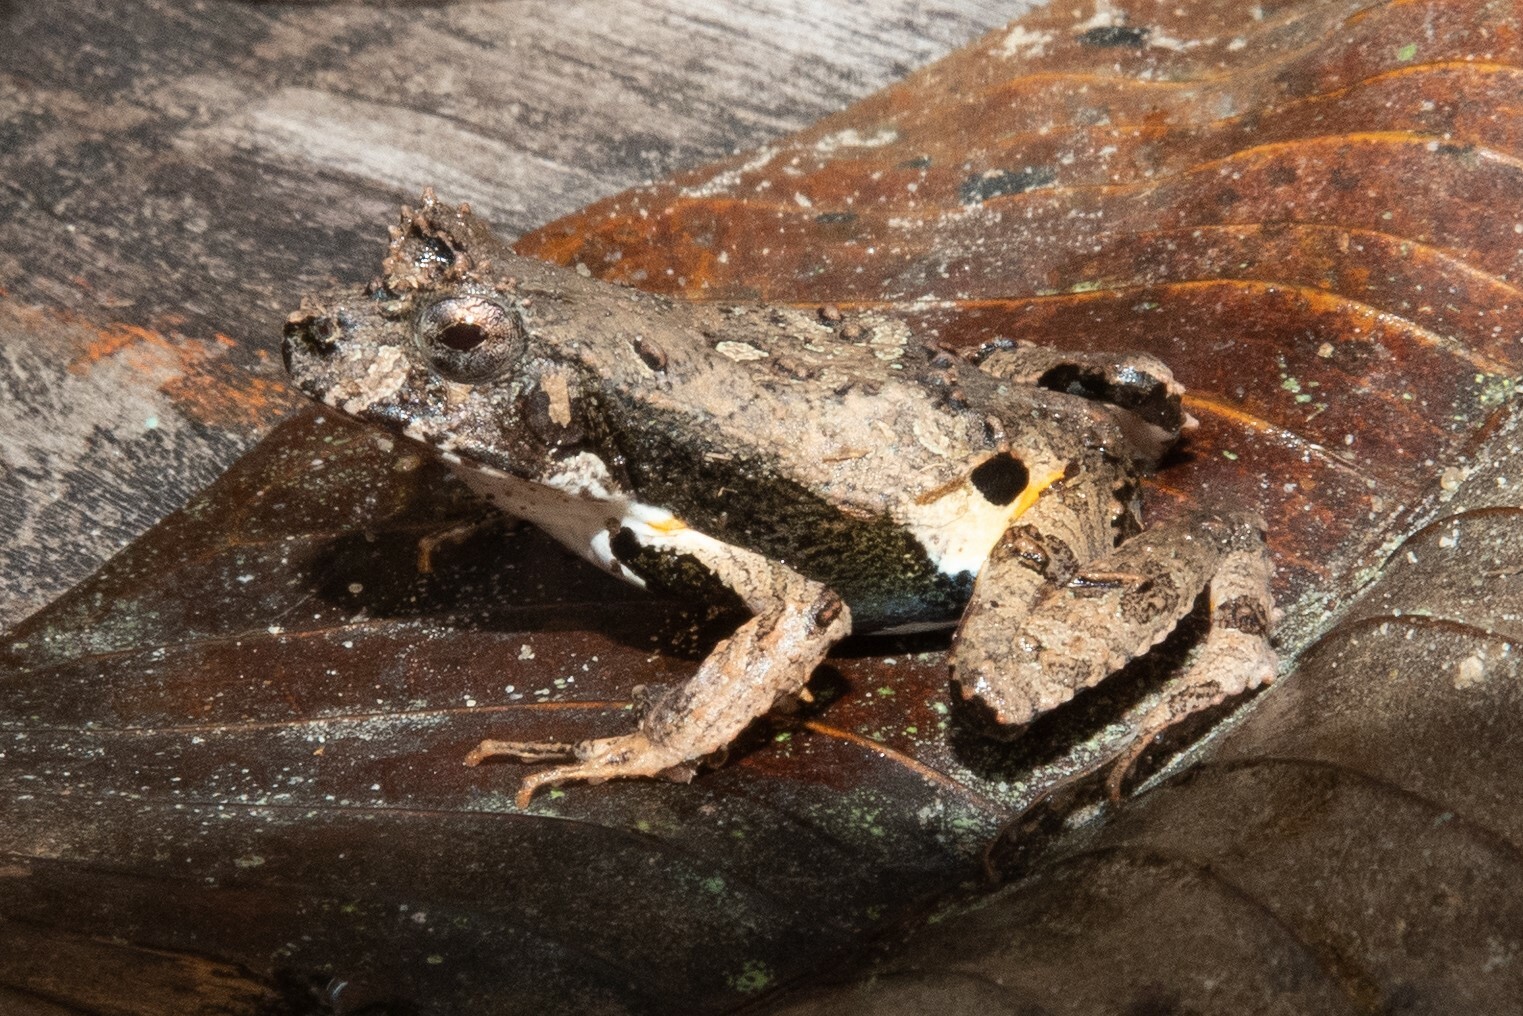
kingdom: Animalia
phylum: Chordata
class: Amphibia
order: Anura
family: Leptodactylidae
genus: Edalorhina
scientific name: Edalorhina perezi
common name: Perez’s snouted frog
